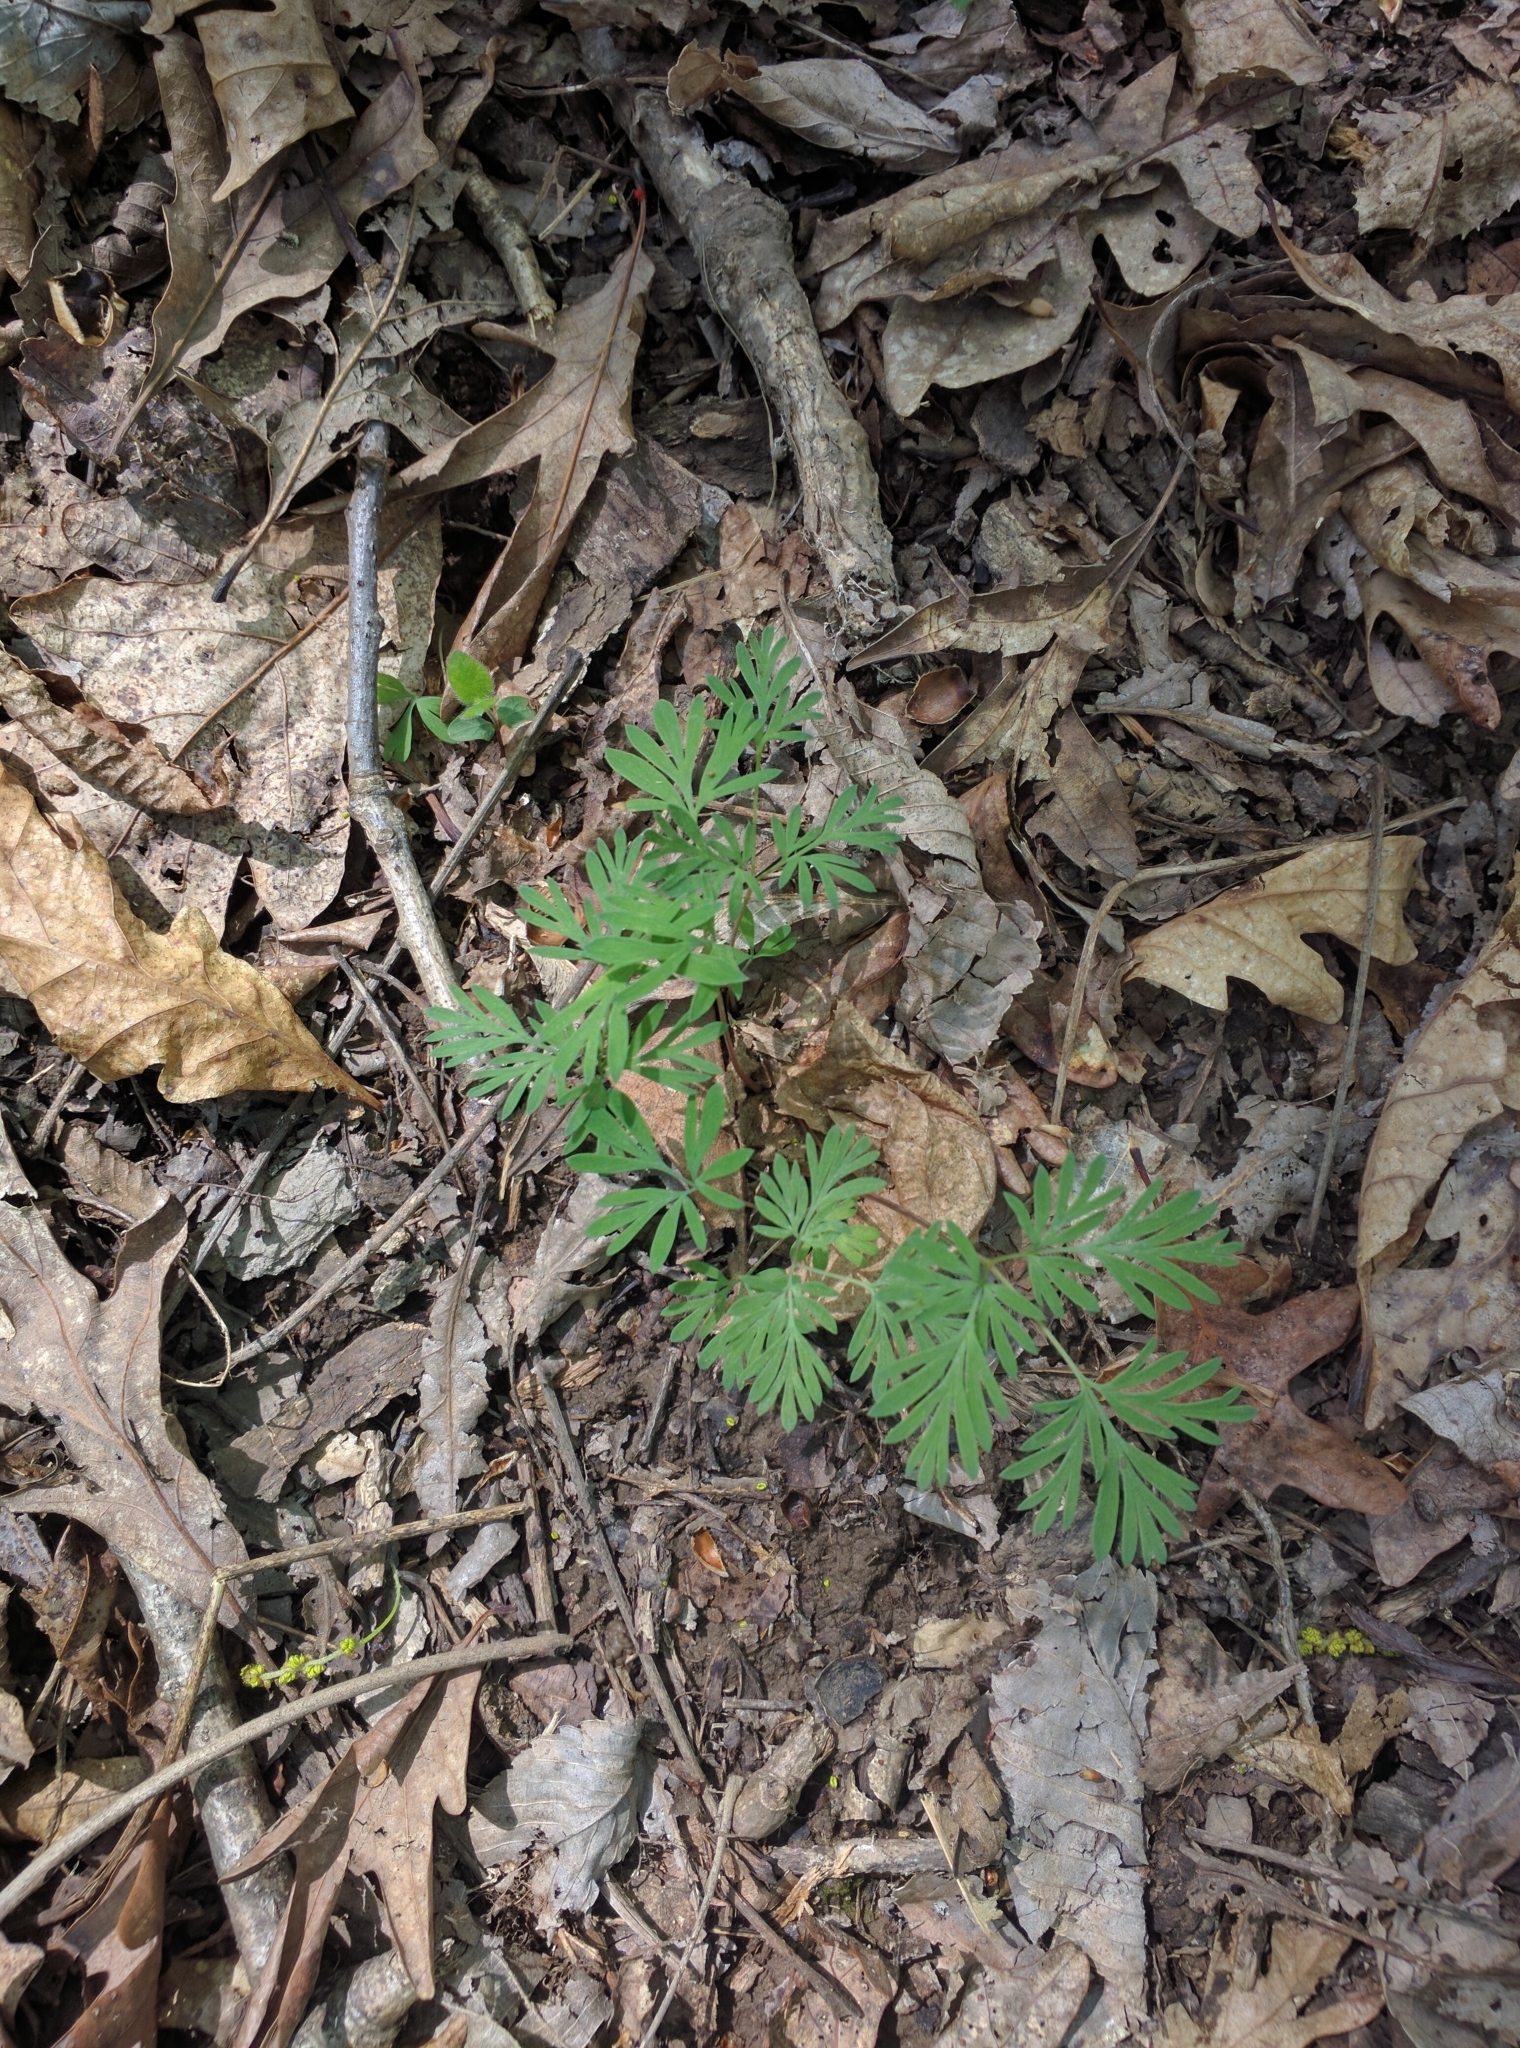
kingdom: Plantae
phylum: Tracheophyta
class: Magnoliopsida
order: Ranunculales
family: Papaveraceae
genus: Dicentra
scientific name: Dicentra cucullaria
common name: Dutchman's breeches
